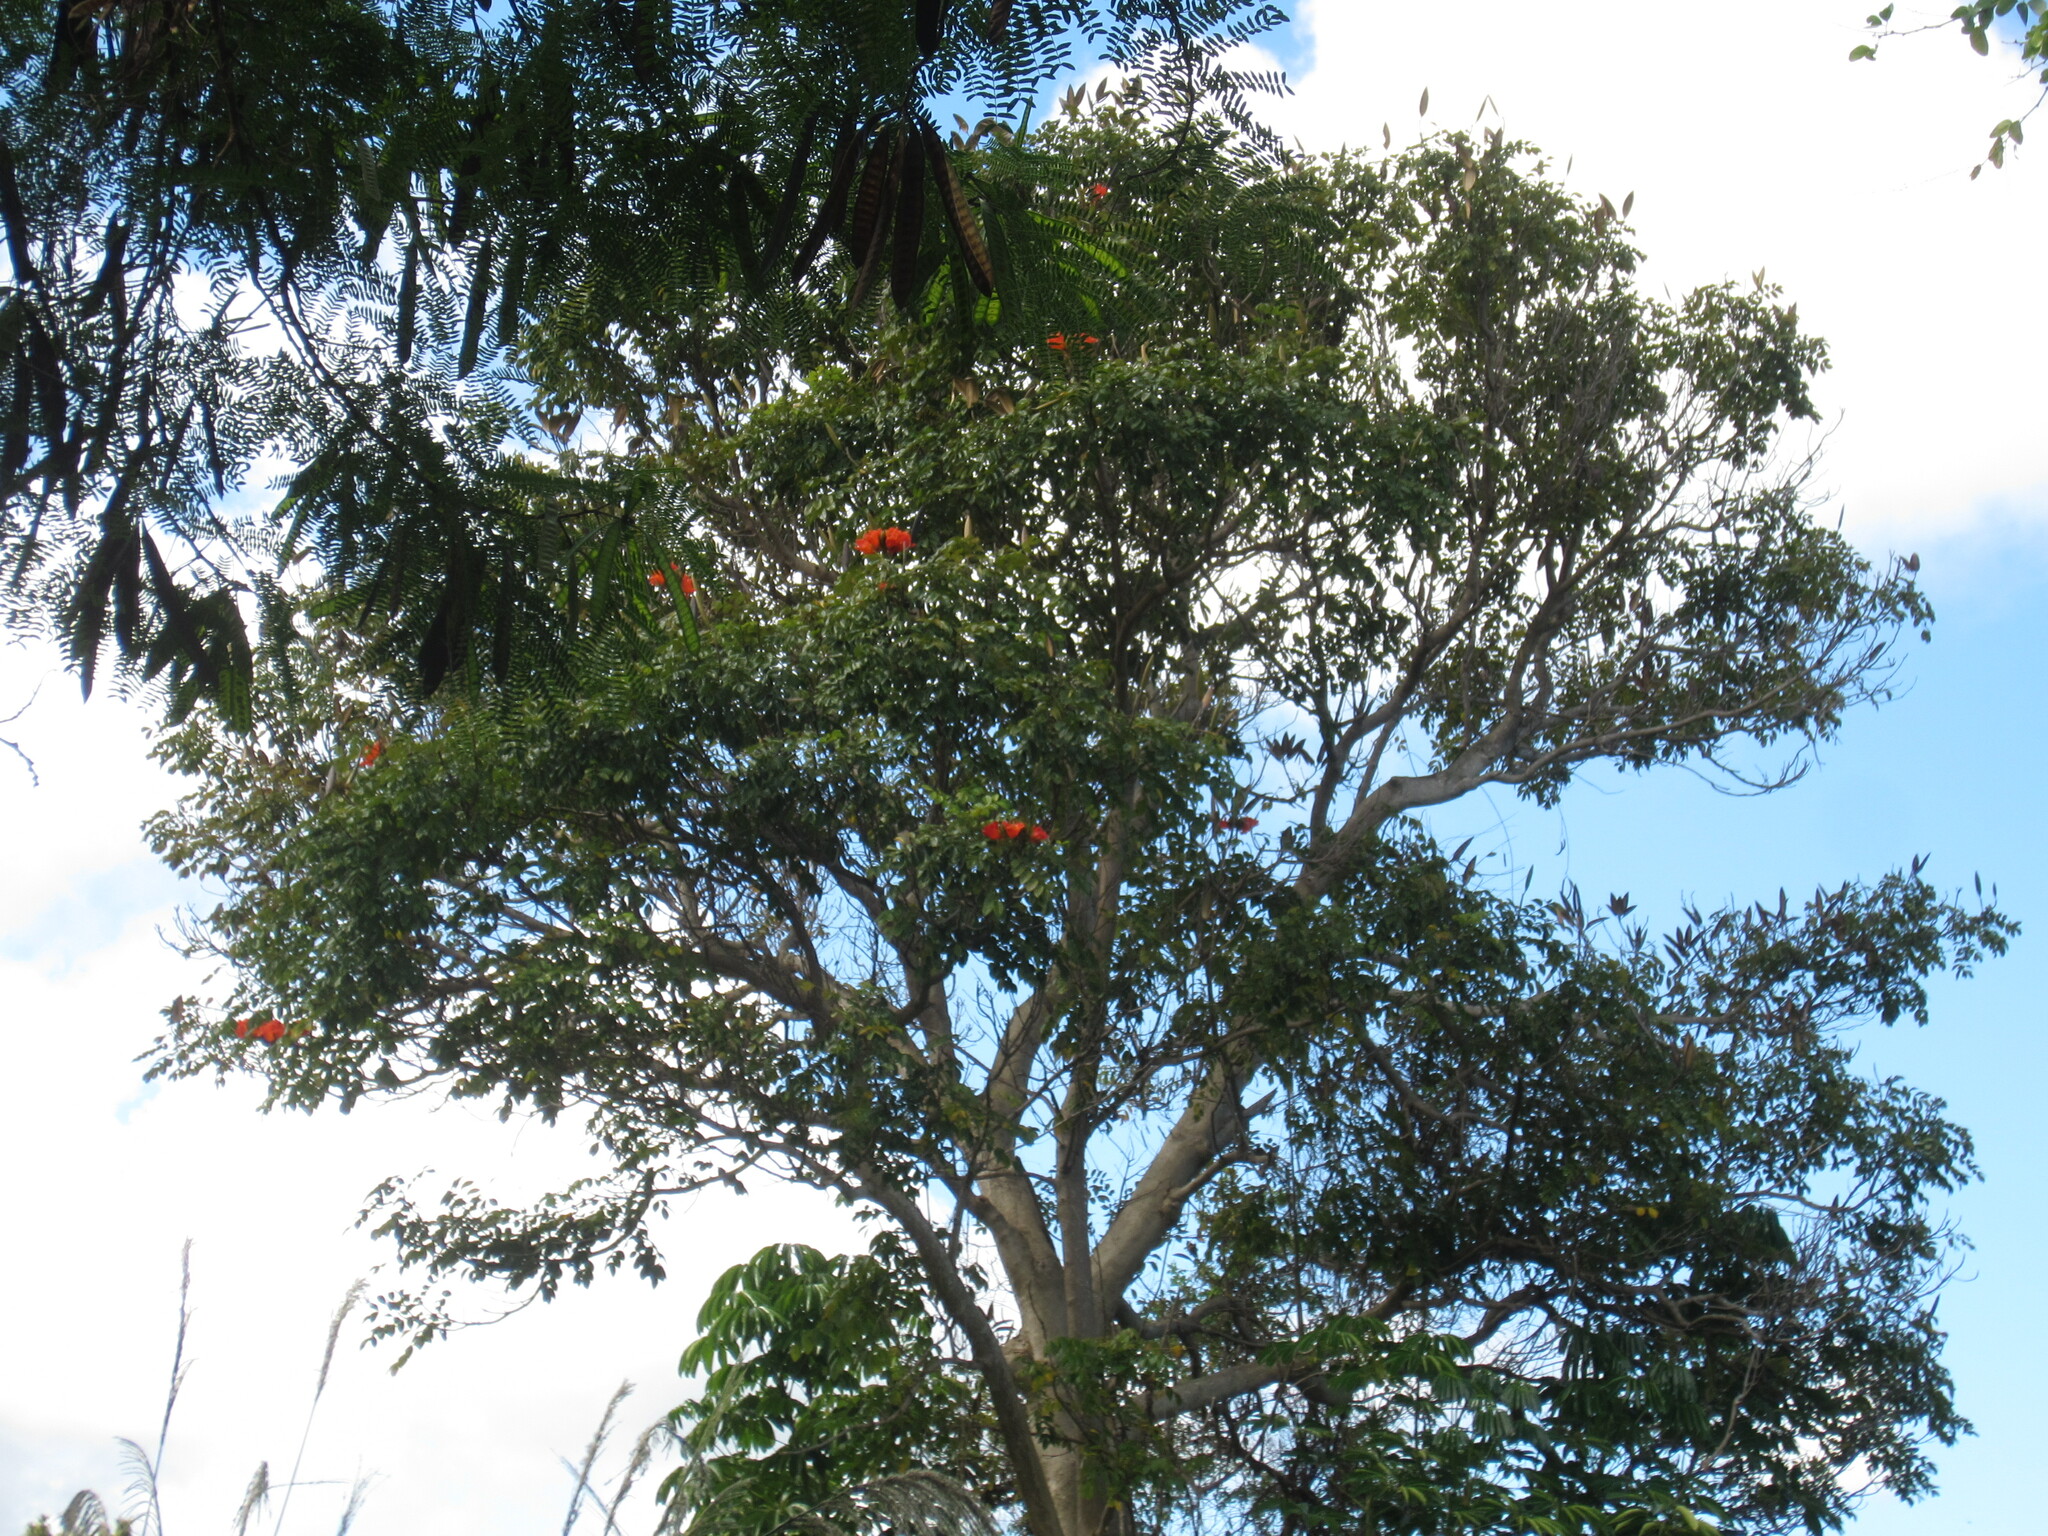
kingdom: Plantae
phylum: Tracheophyta
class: Magnoliopsida
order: Lamiales
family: Bignoniaceae
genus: Spathodea
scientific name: Spathodea campanulata
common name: African tuliptree
